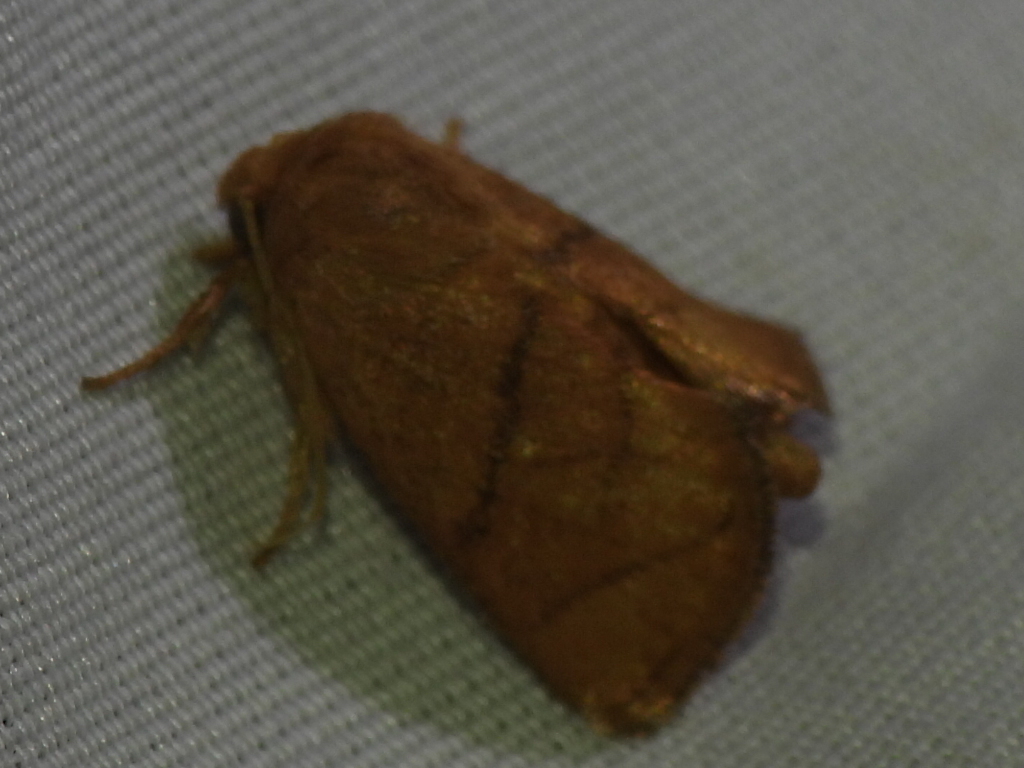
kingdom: Animalia
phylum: Arthropoda
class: Insecta
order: Lepidoptera
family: Limacodidae
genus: Apoda
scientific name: Apoda y-inversa
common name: Yellow-collared slug moth
